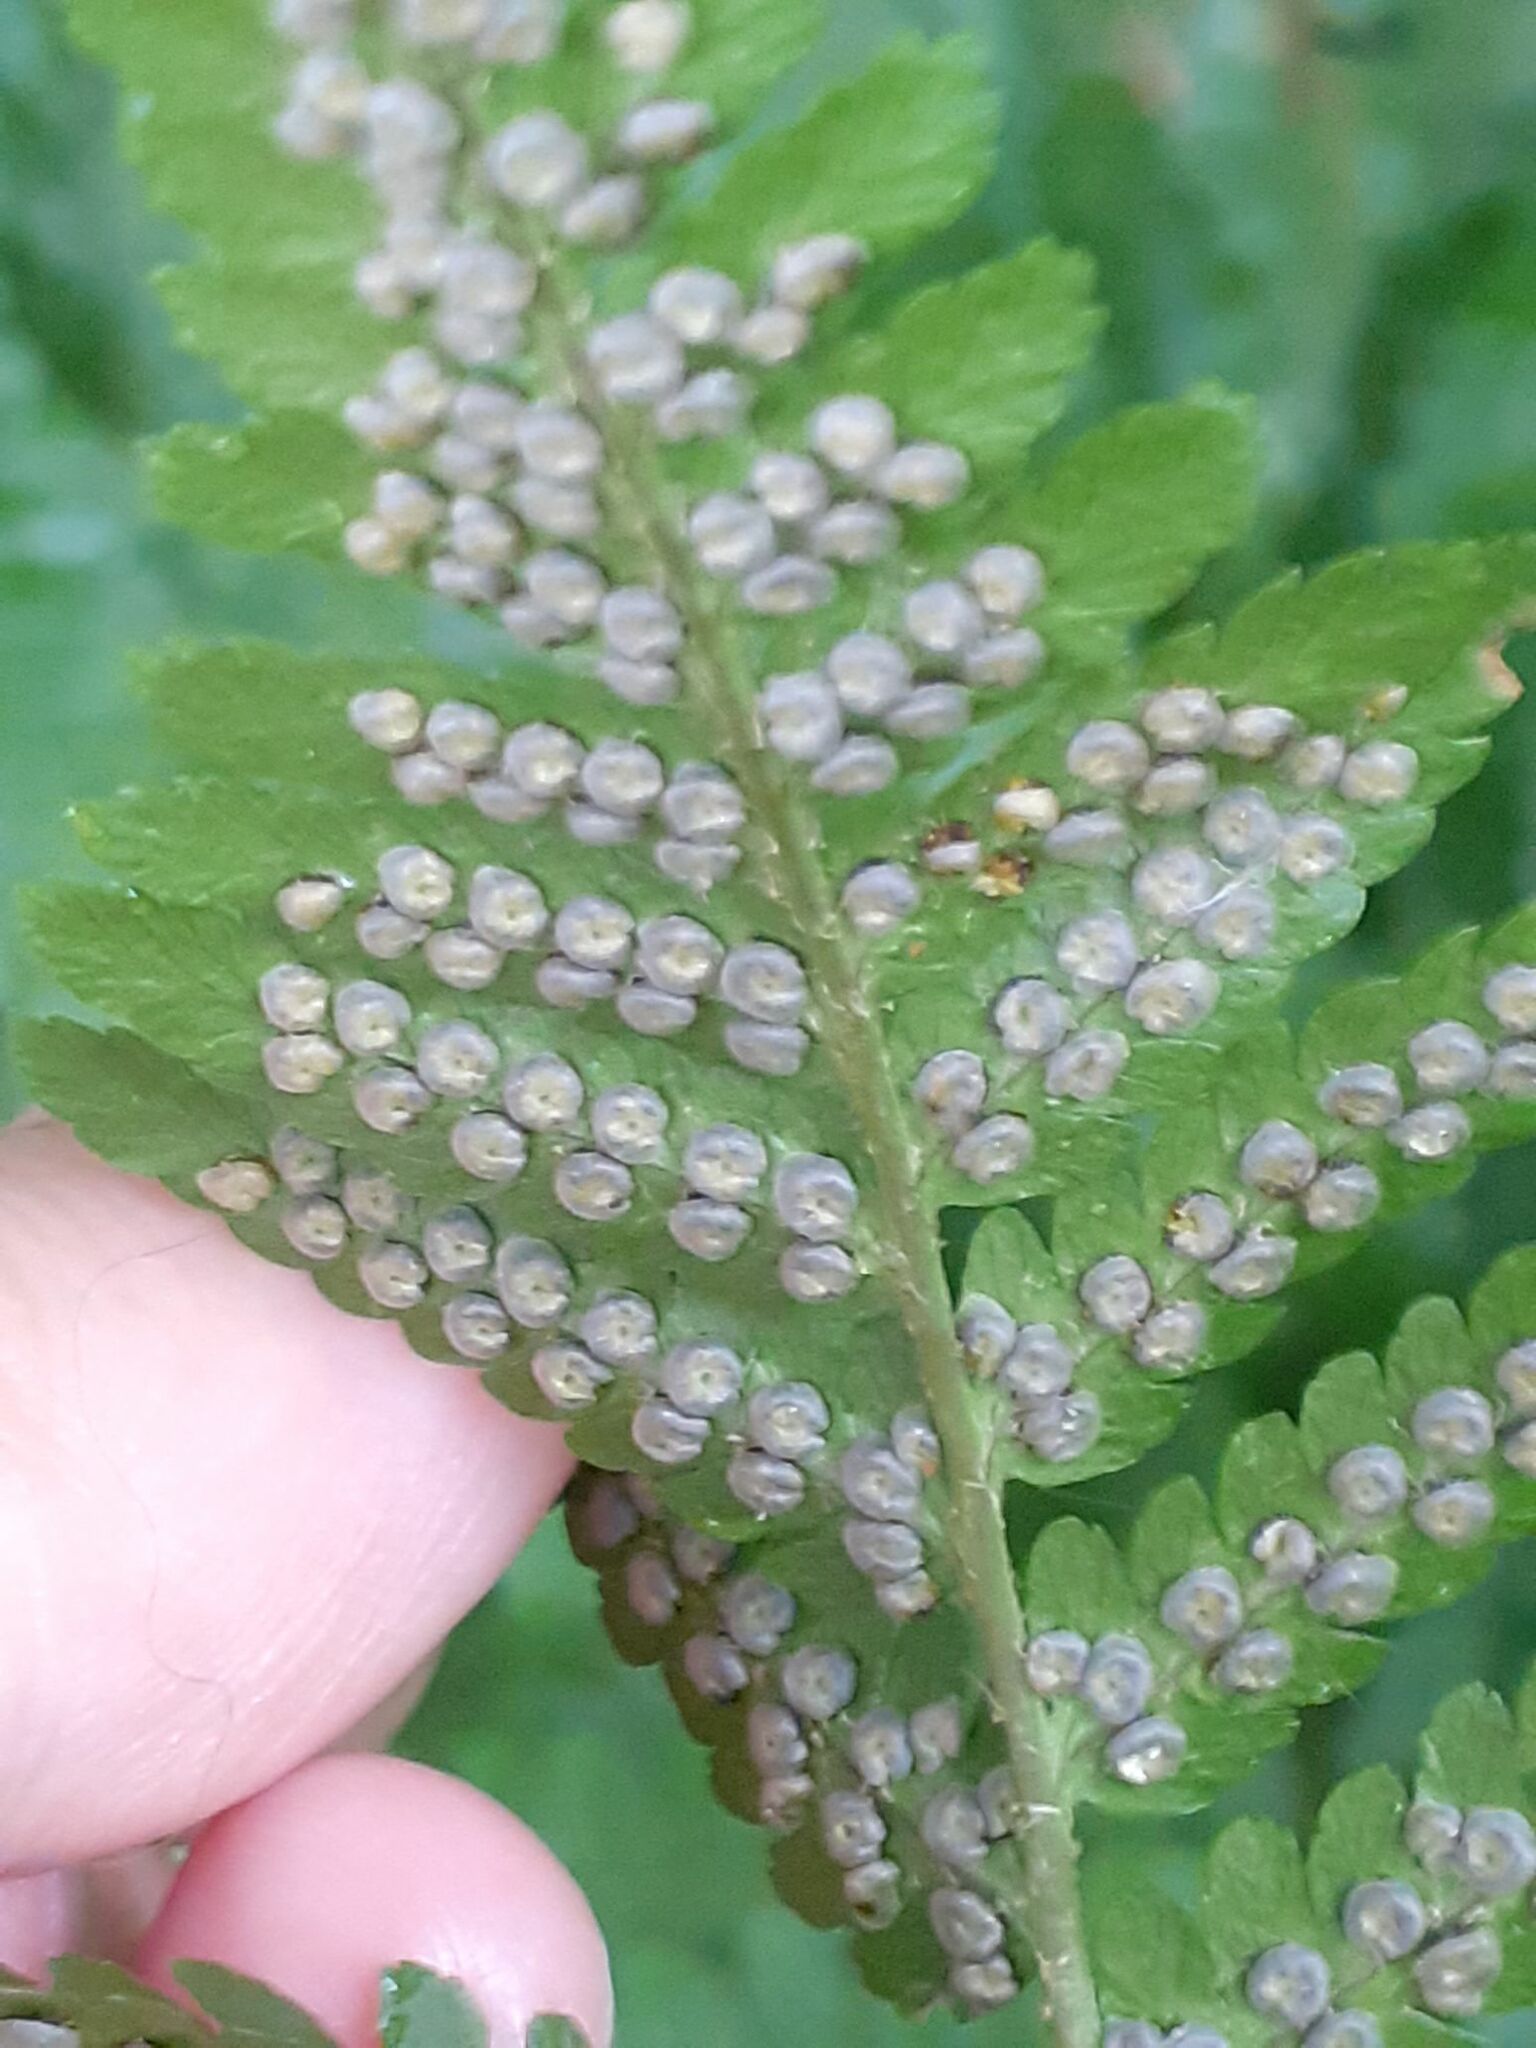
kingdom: Plantae
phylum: Tracheophyta
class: Polypodiopsida
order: Polypodiales
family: Dryopteridaceae
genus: Dryopteris
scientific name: Dryopteris filix-mas
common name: Male fern
